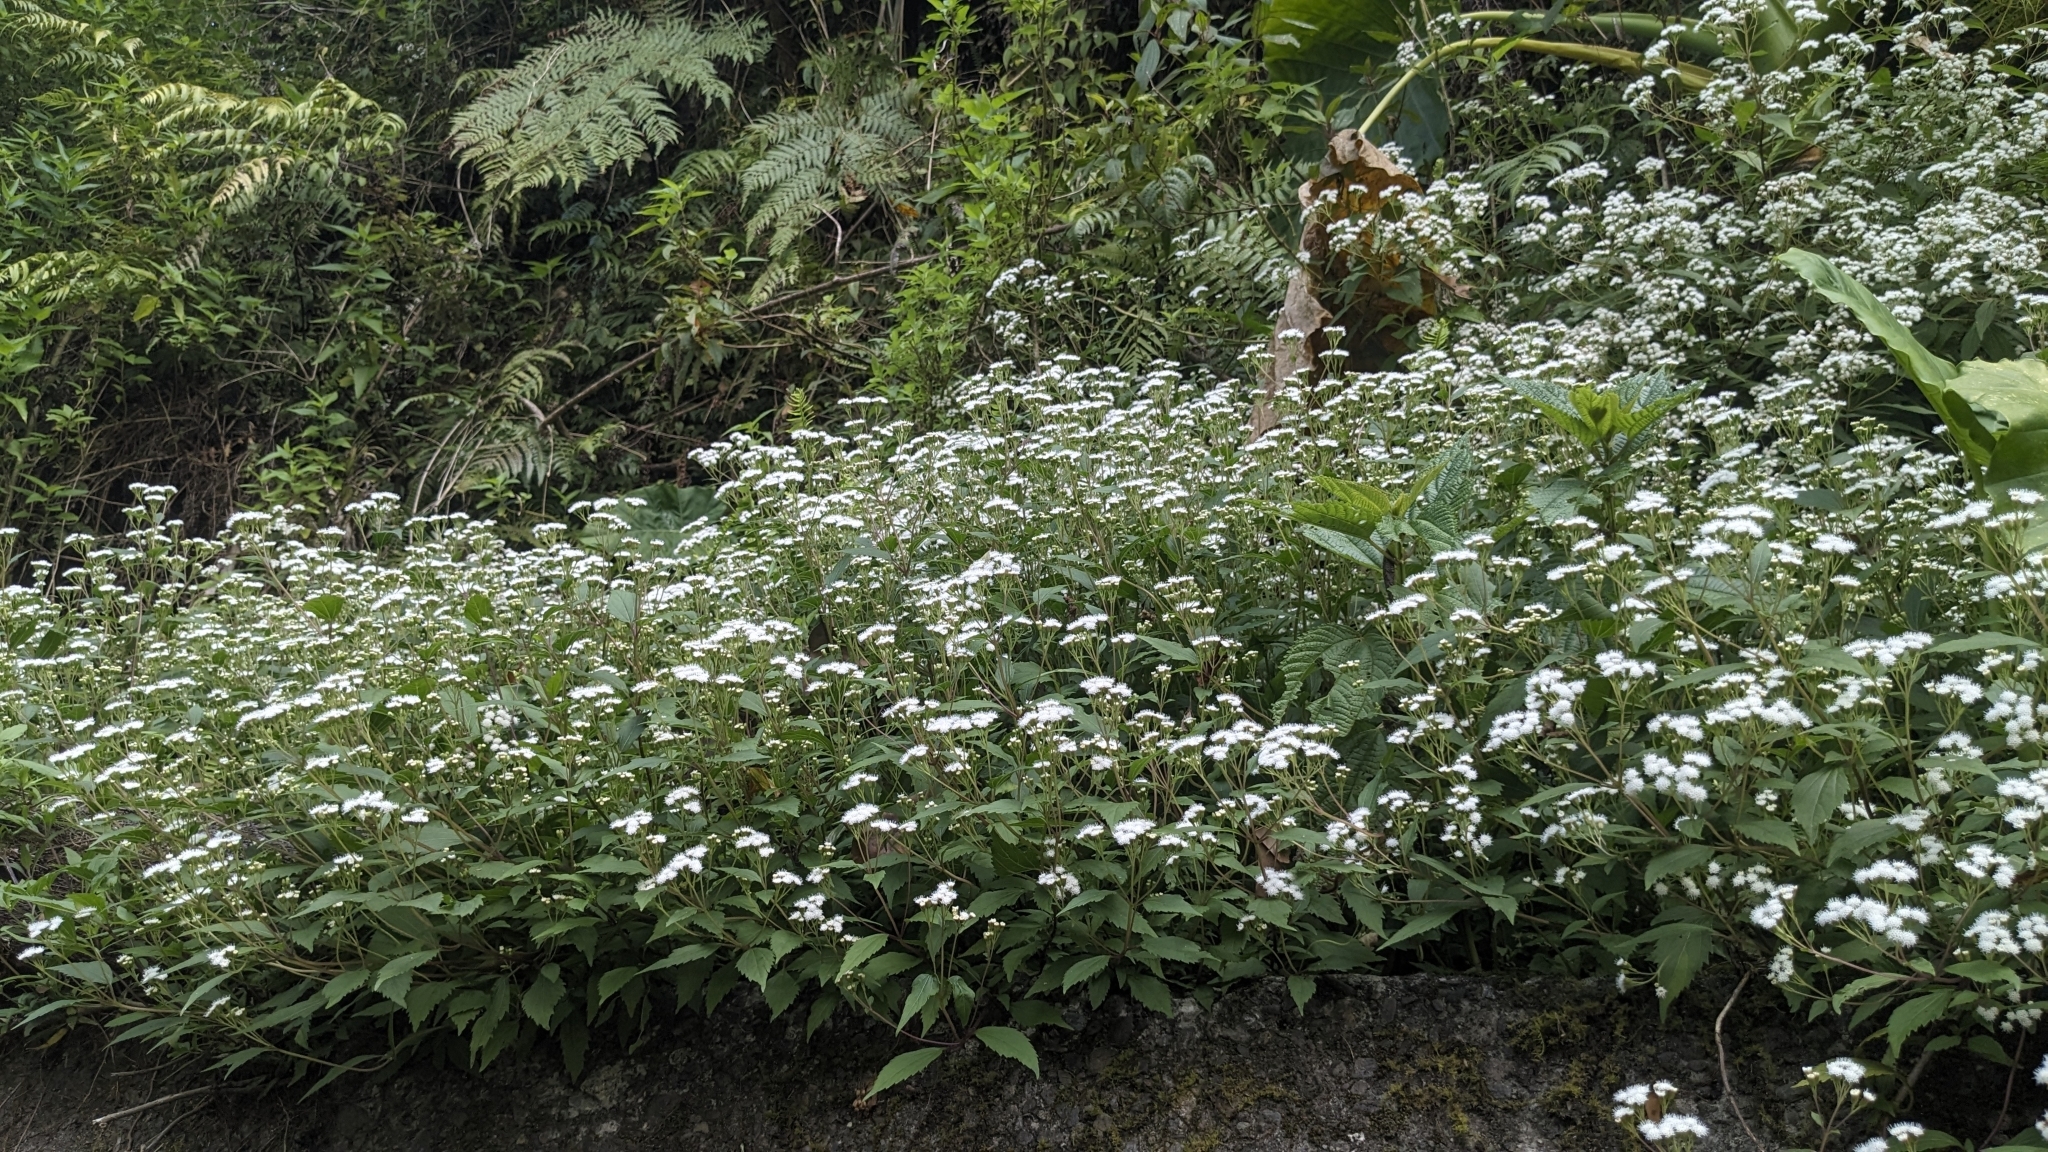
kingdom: Plantae
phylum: Tracheophyta
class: Magnoliopsida
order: Asterales
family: Asteraceae
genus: Ageratina
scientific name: Ageratina riparia
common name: Creeping croftonweed
